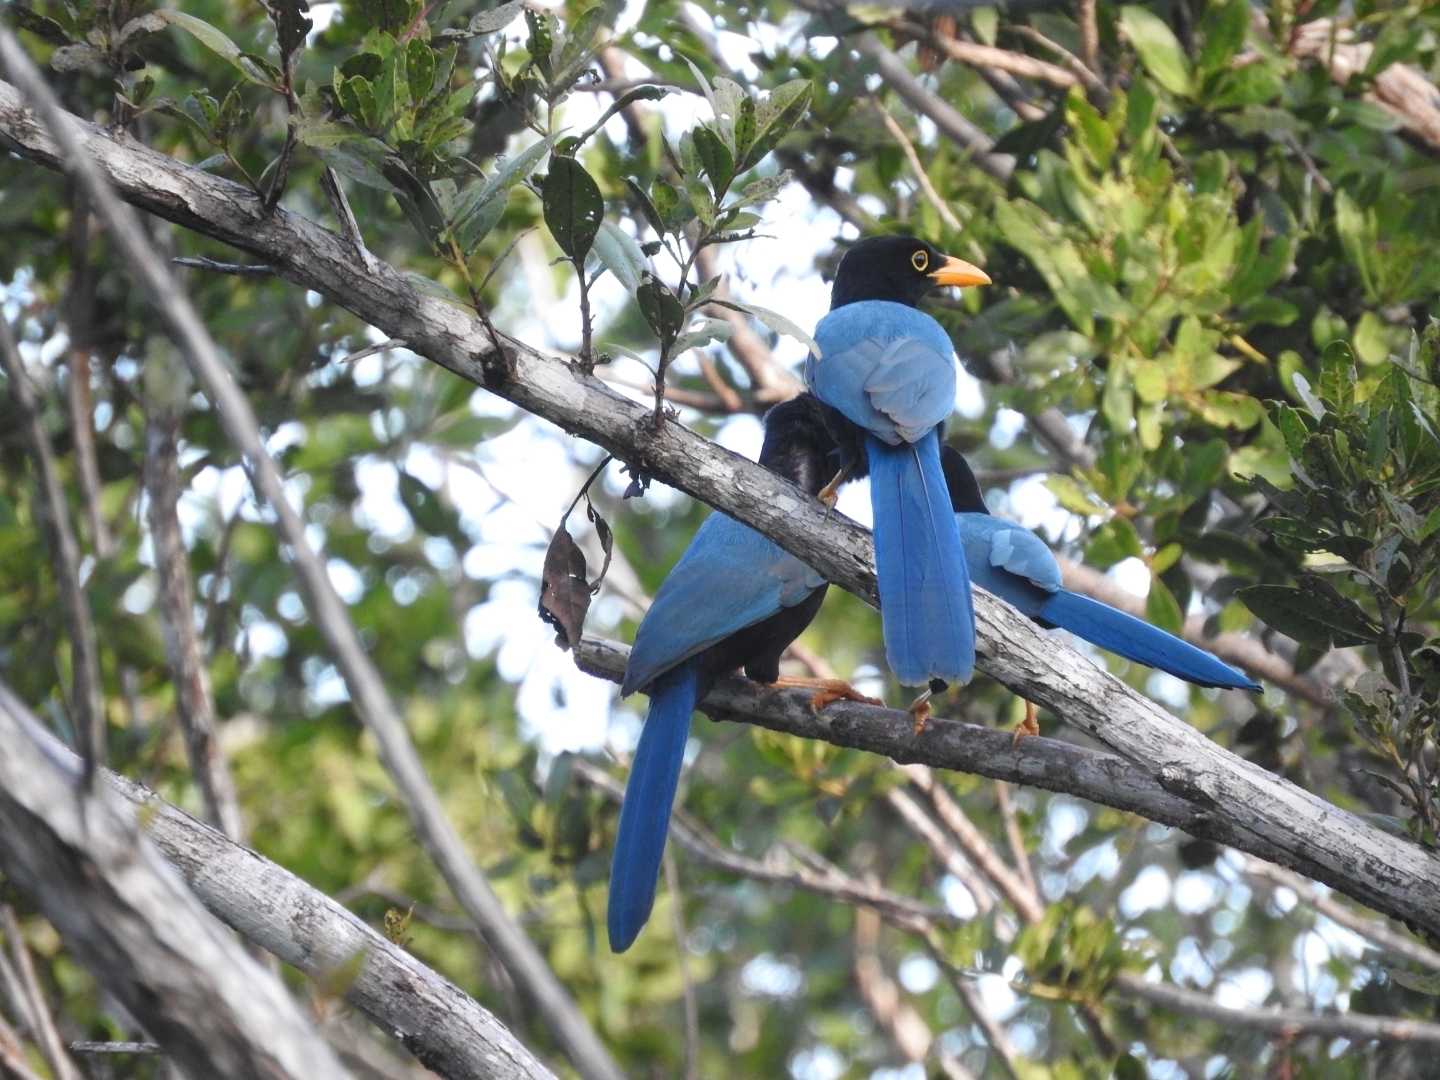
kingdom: Animalia
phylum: Chordata
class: Aves
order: Passeriformes
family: Corvidae
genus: Cyanocorax
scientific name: Cyanocorax yucatanicus
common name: Yucatan jay
